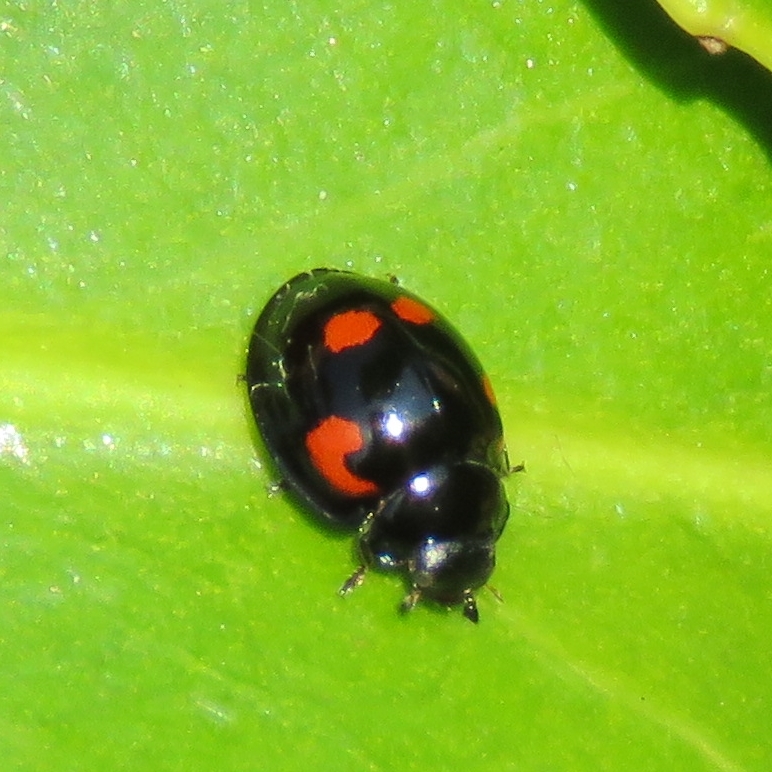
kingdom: Animalia
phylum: Arthropoda
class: Insecta
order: Coleoptera
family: Coccinellidae
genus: Brumus
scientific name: Brumus quadripustulatus
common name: Ladybird beetle
